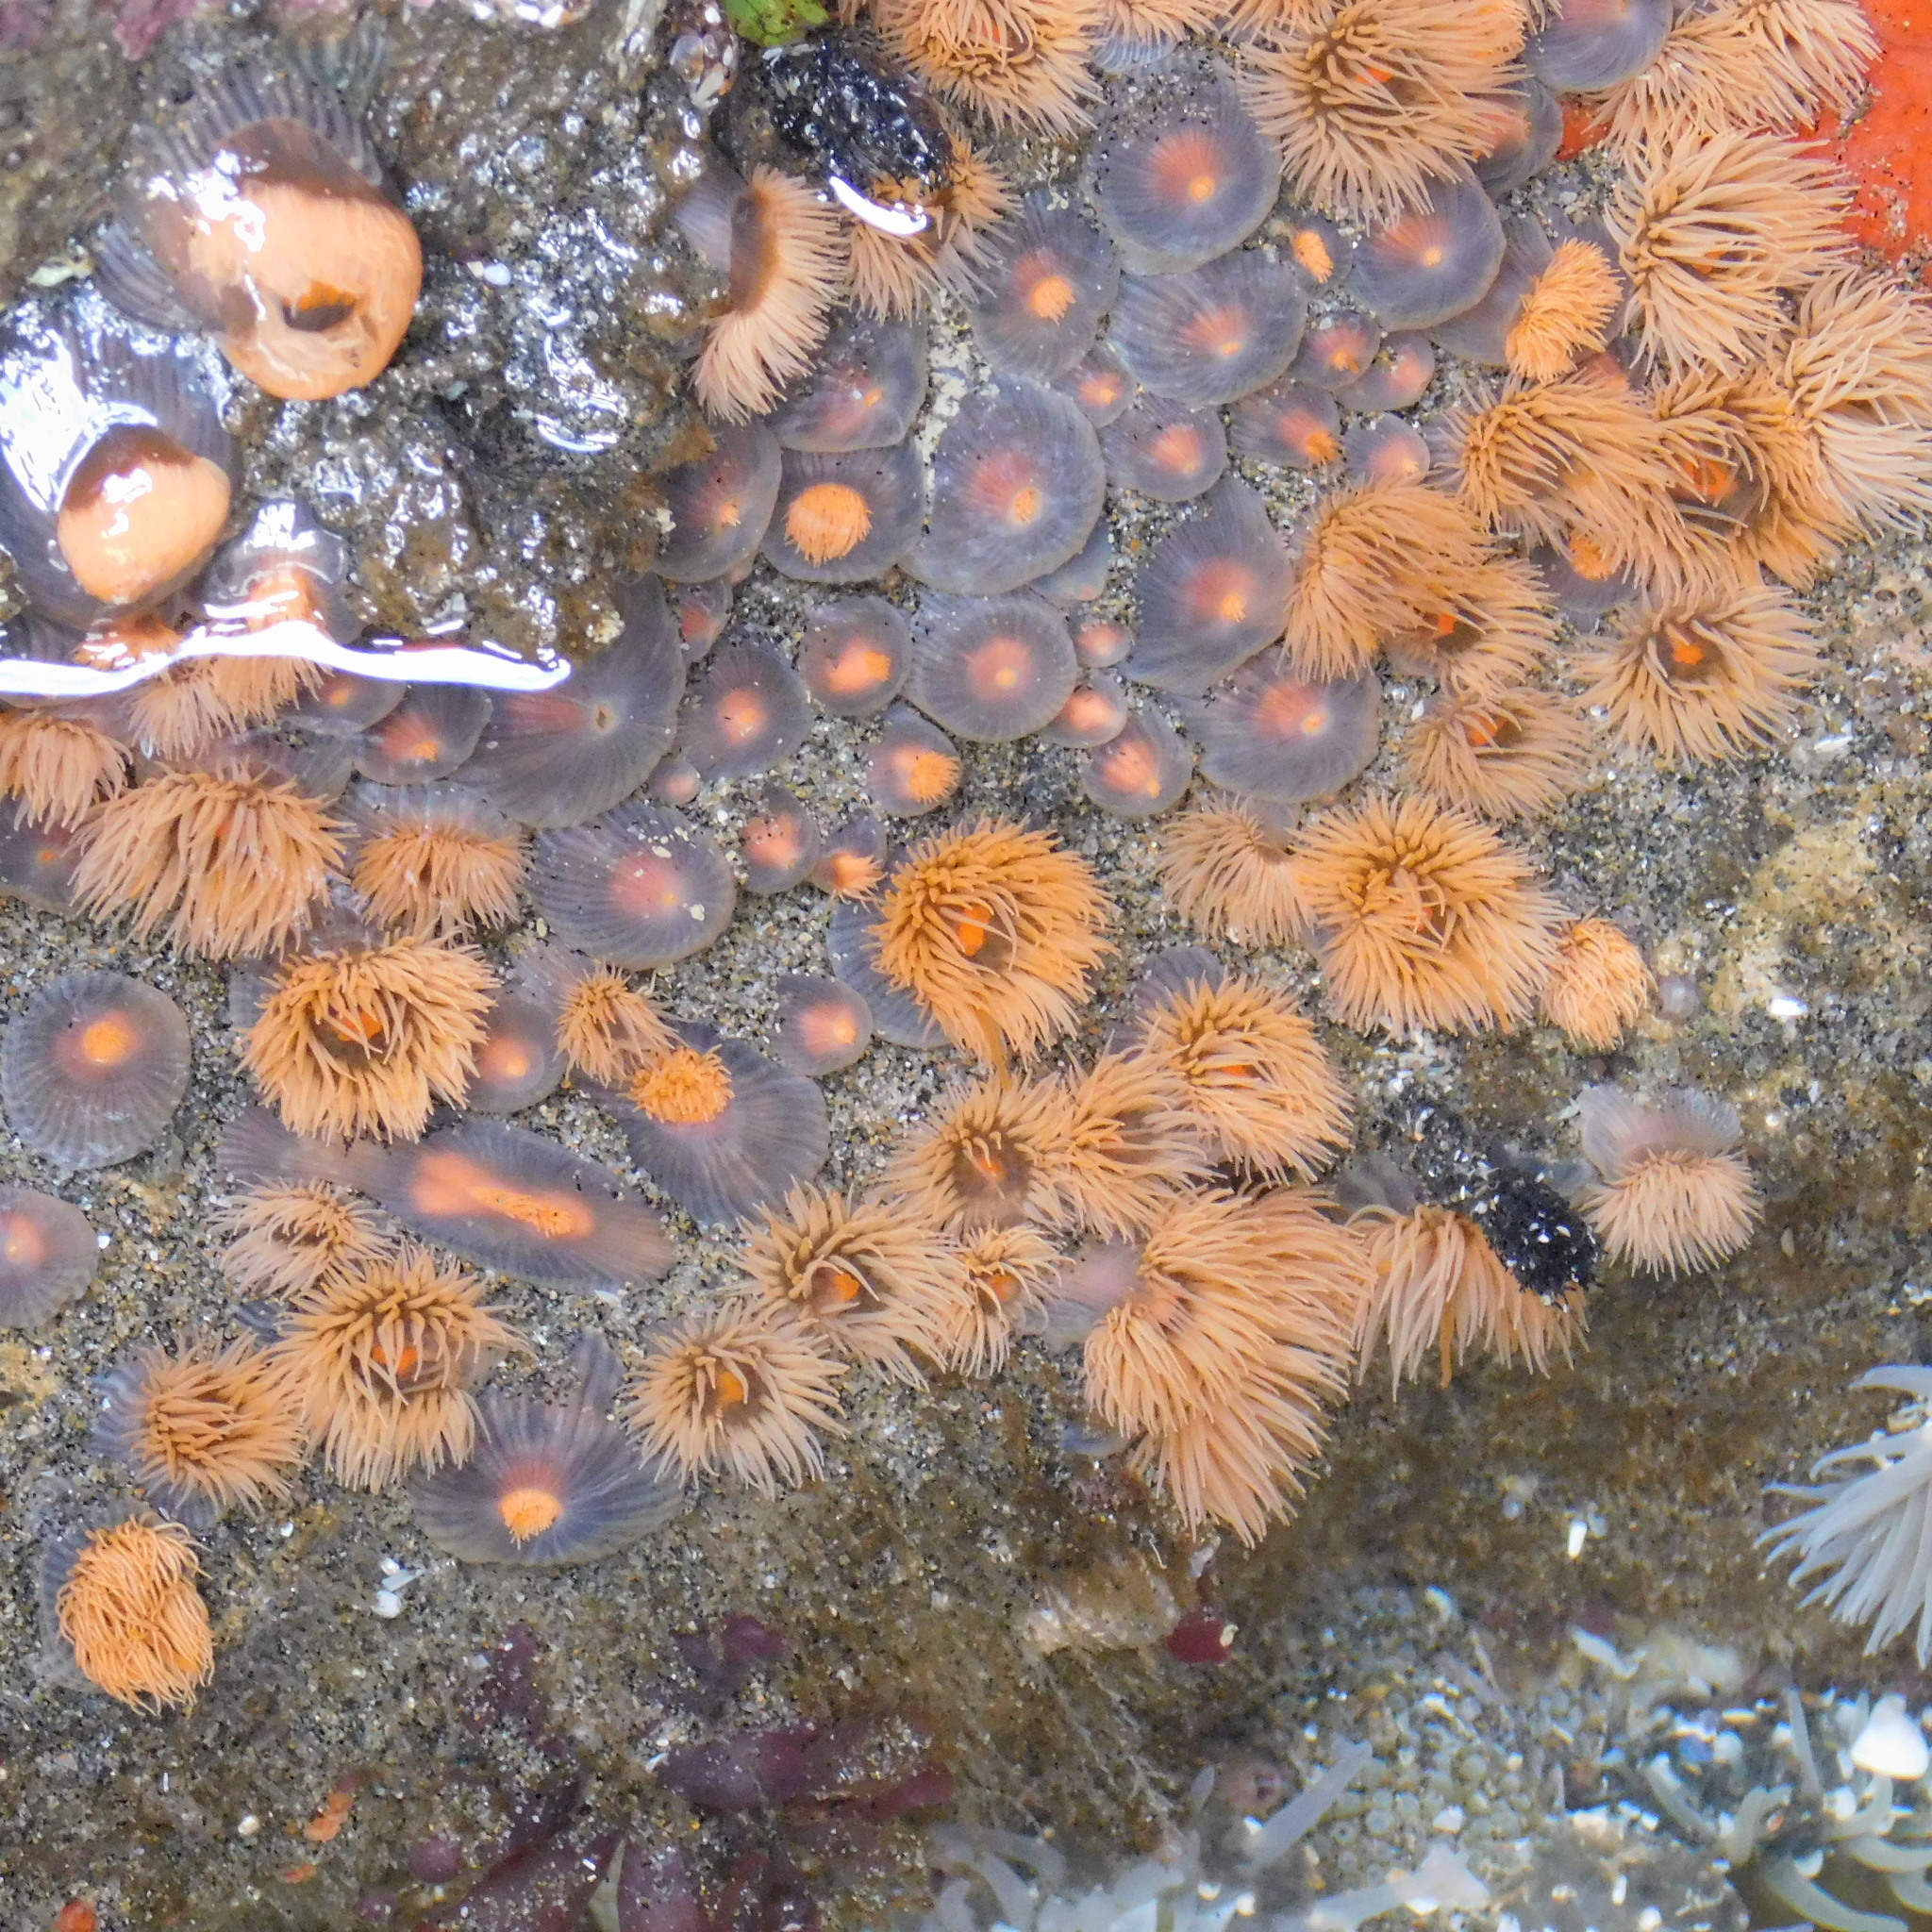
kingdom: Animalia
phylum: Cnidaria
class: Anthozoa
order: Actiniaria
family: Diadumenidae
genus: Diadumene
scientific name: Diadumene neozelanica
